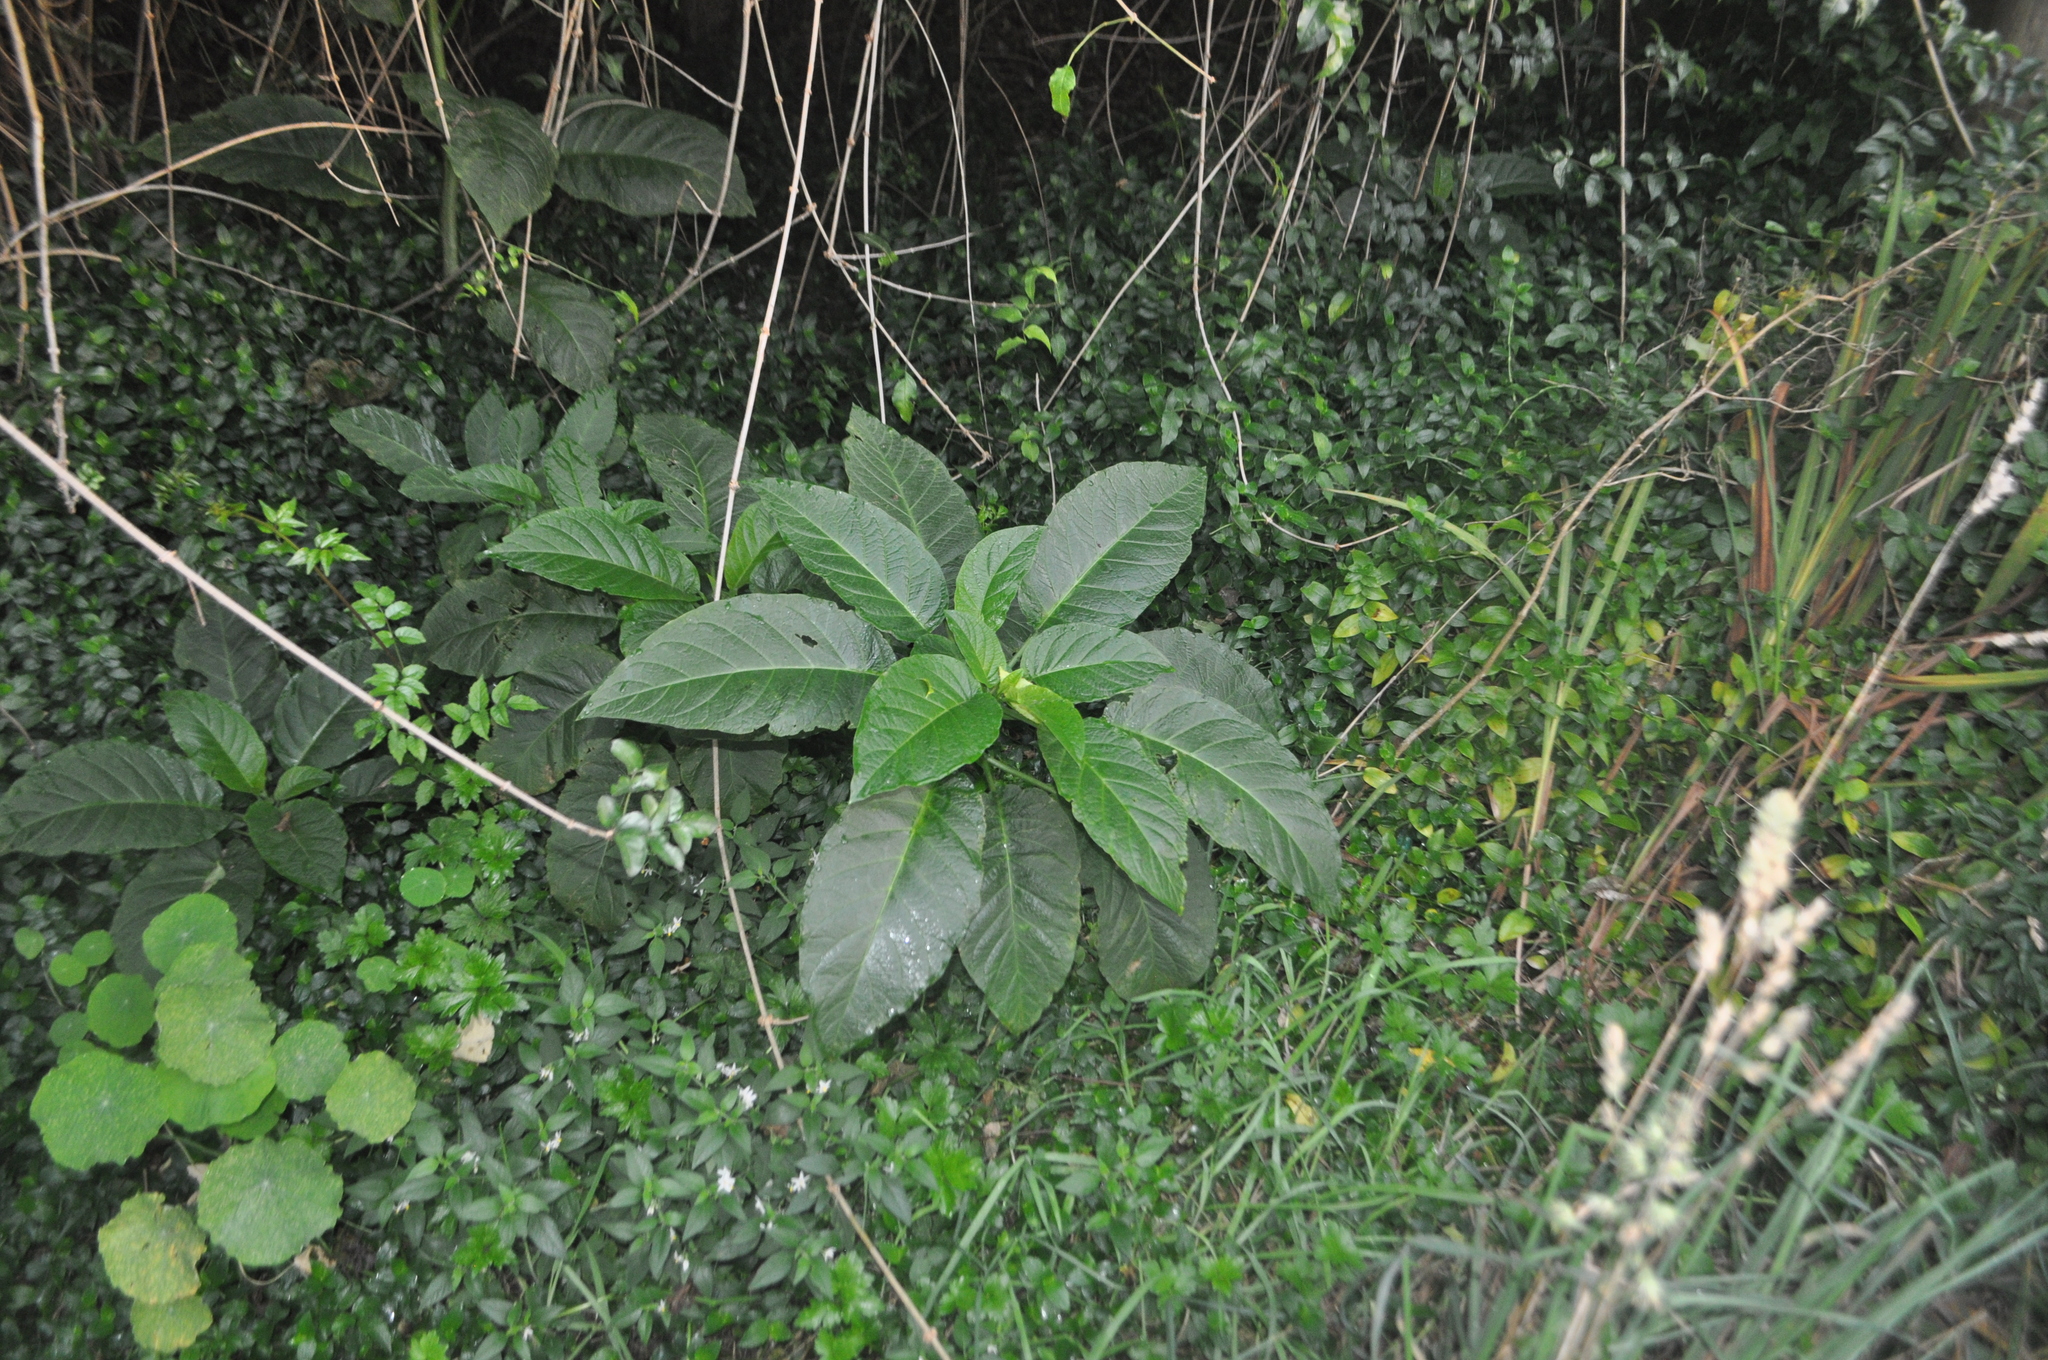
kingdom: Plantae
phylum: Tracheophyta
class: Magnoliopsida
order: Caryophyllales
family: Phytolaccaceae
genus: Phytolacca
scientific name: Phytolacca
